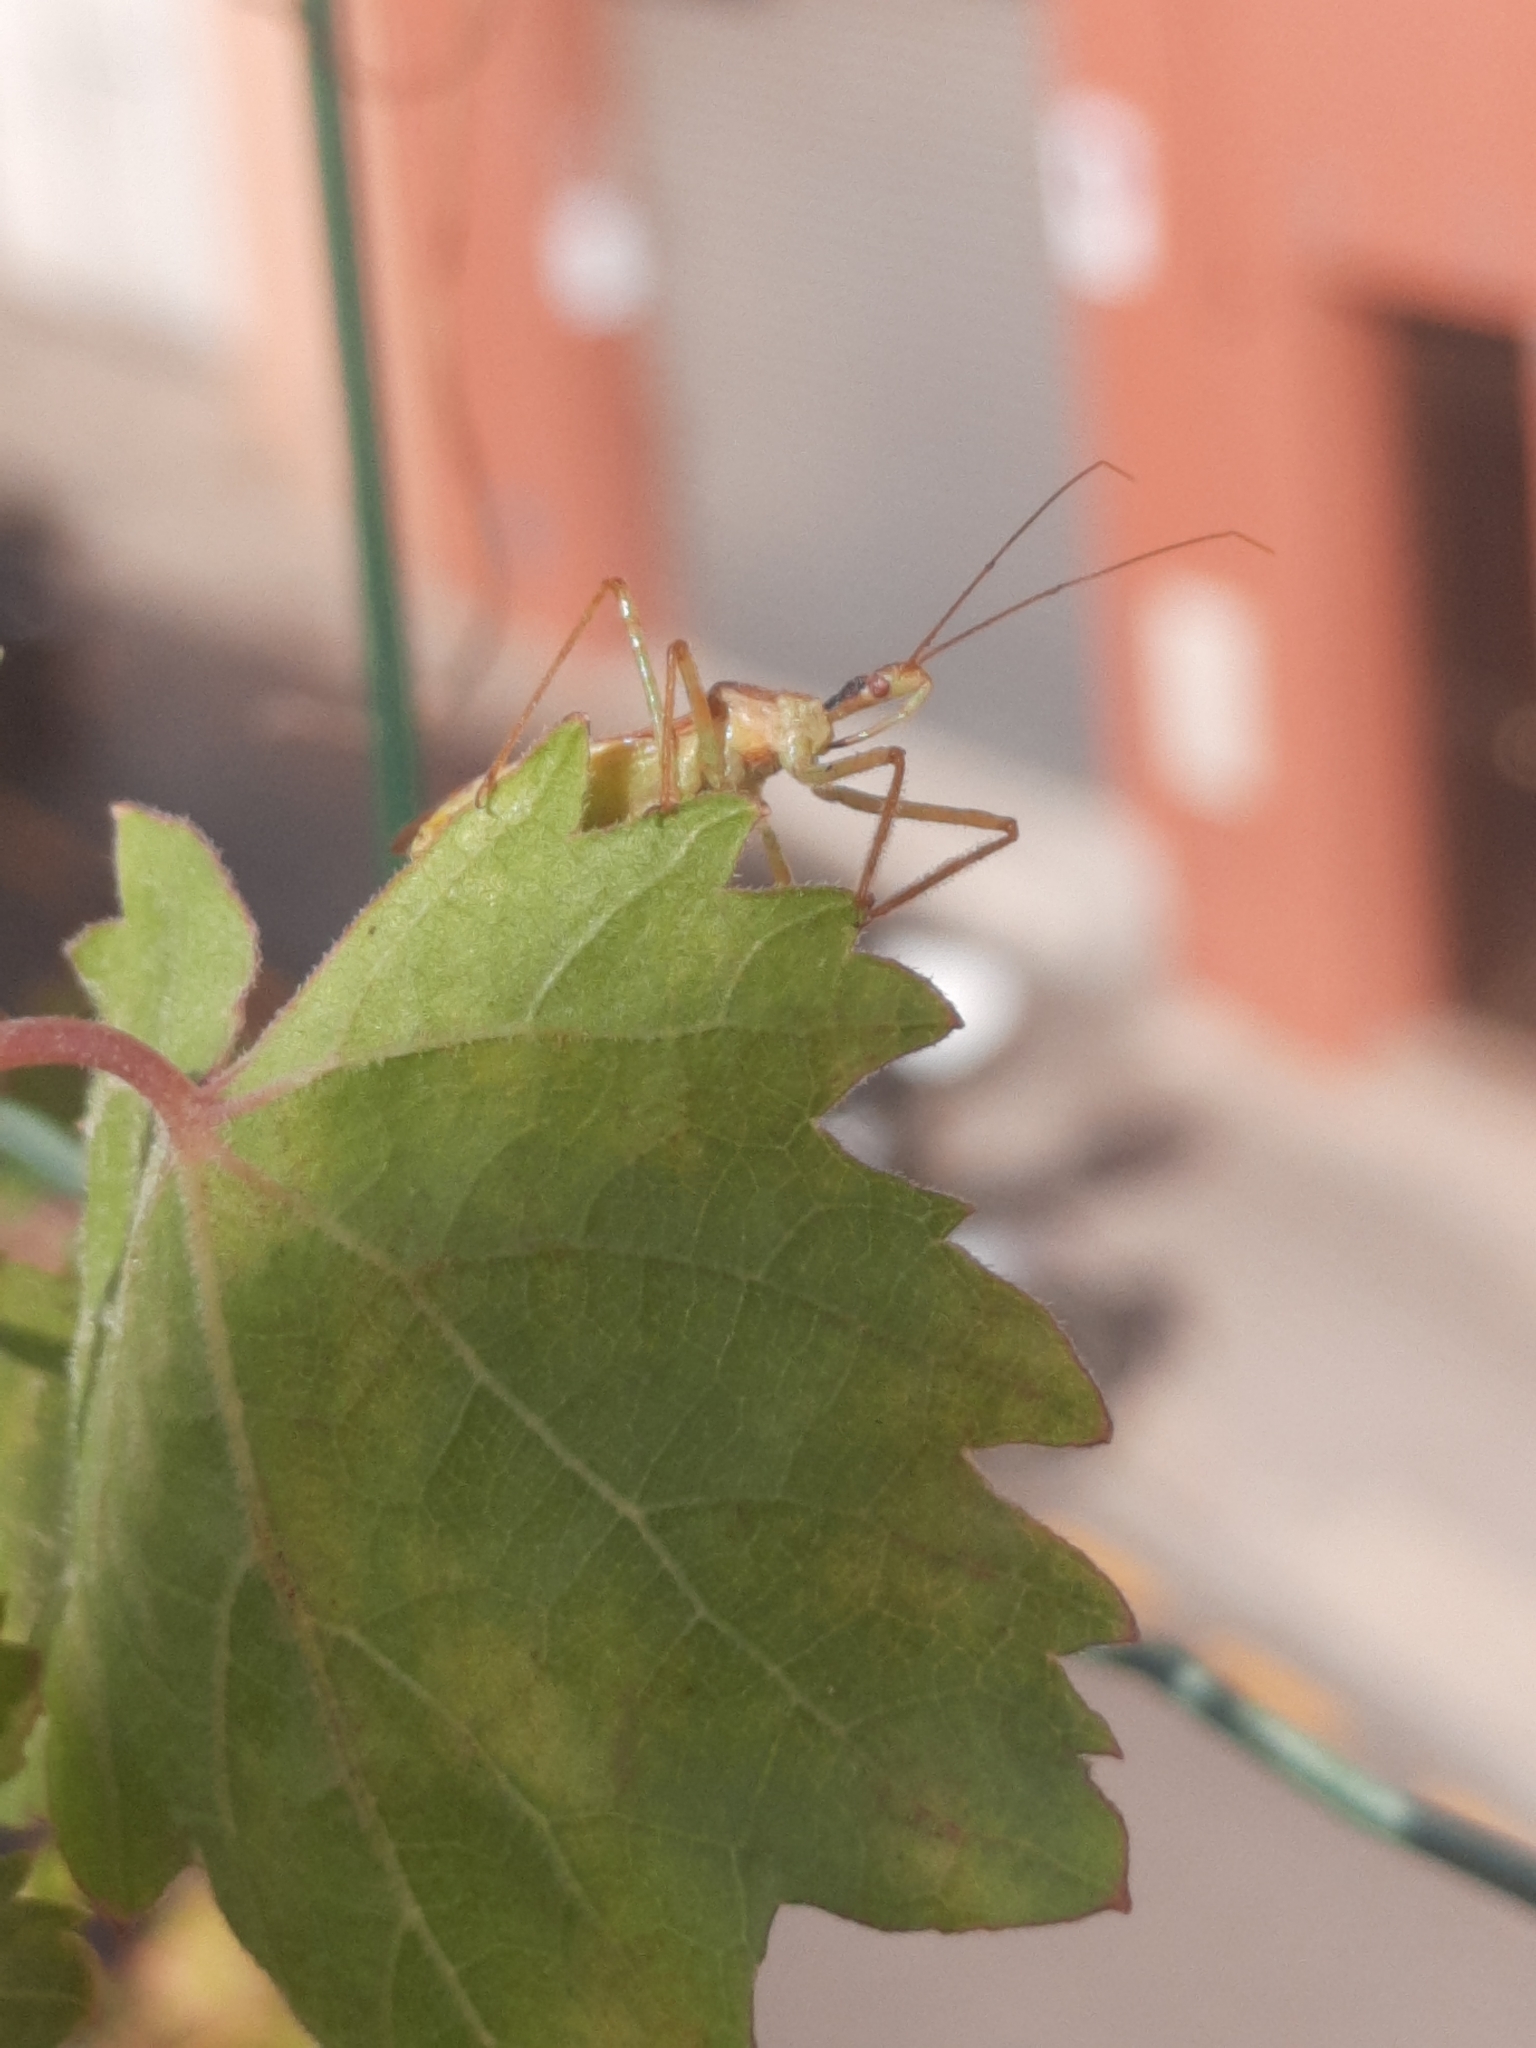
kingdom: Animalia
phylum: Arthropoda
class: Insecta
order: Hemiptera
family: Reduviidae
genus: Zelus
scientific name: Zelus renardii
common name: Assassin bug
